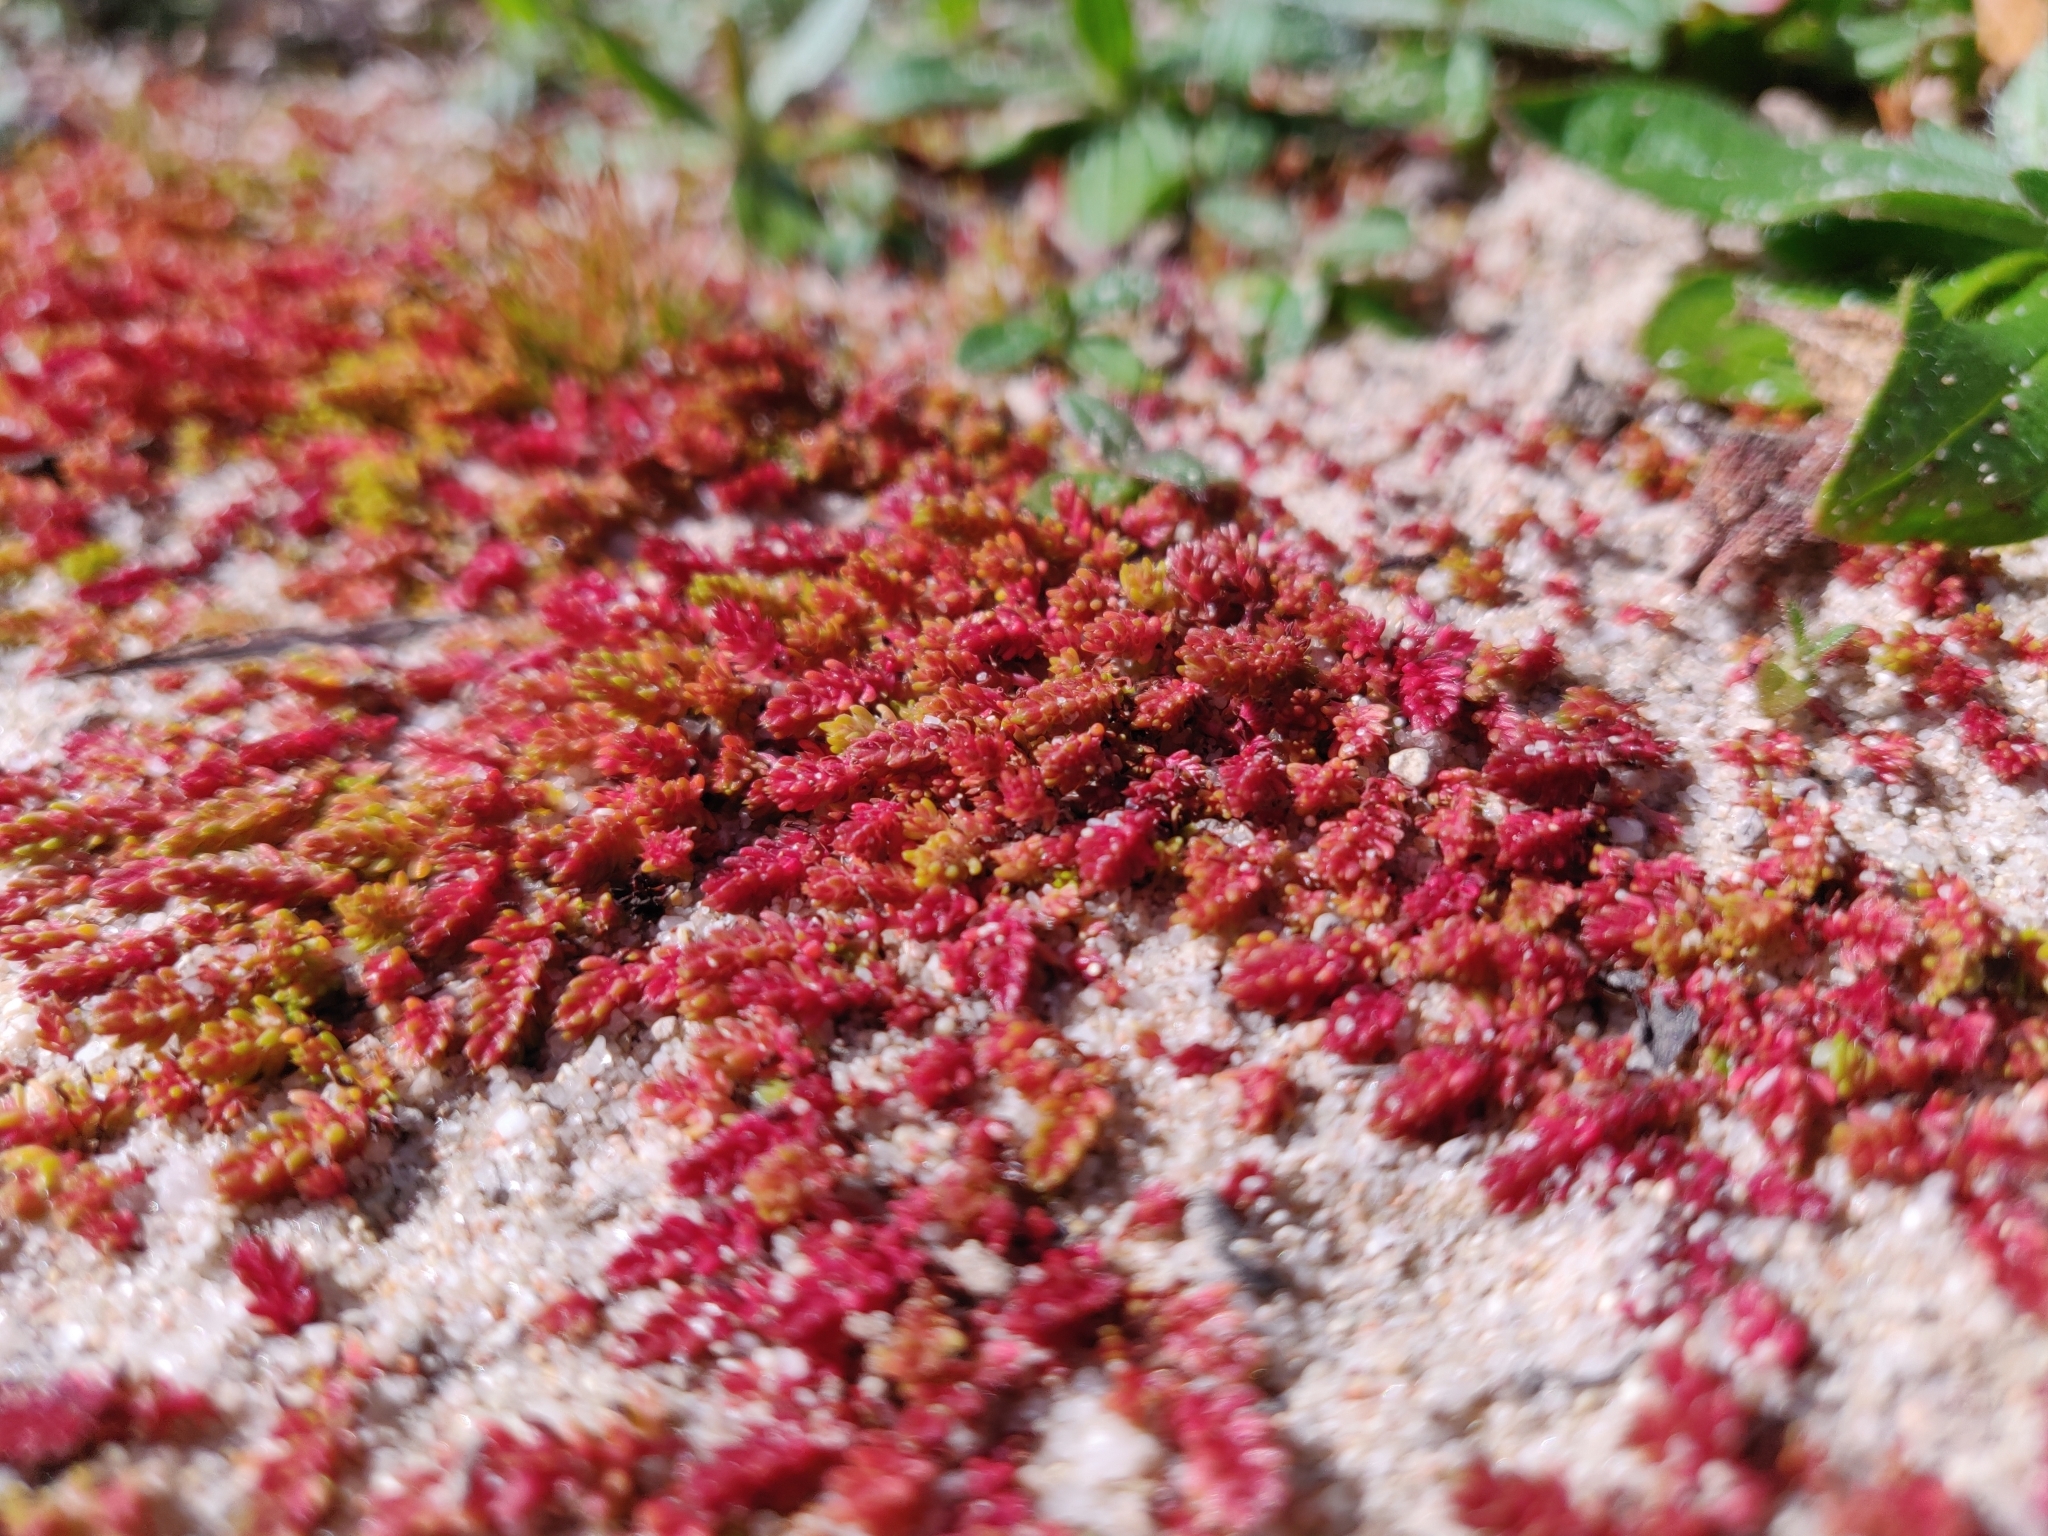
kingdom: Plantae
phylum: Tracheophyta
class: Magnoliopsida
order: Saxifragales
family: Crassulaceae
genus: Crassula
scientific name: Crassula tillaea
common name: Mossy stonecrop
